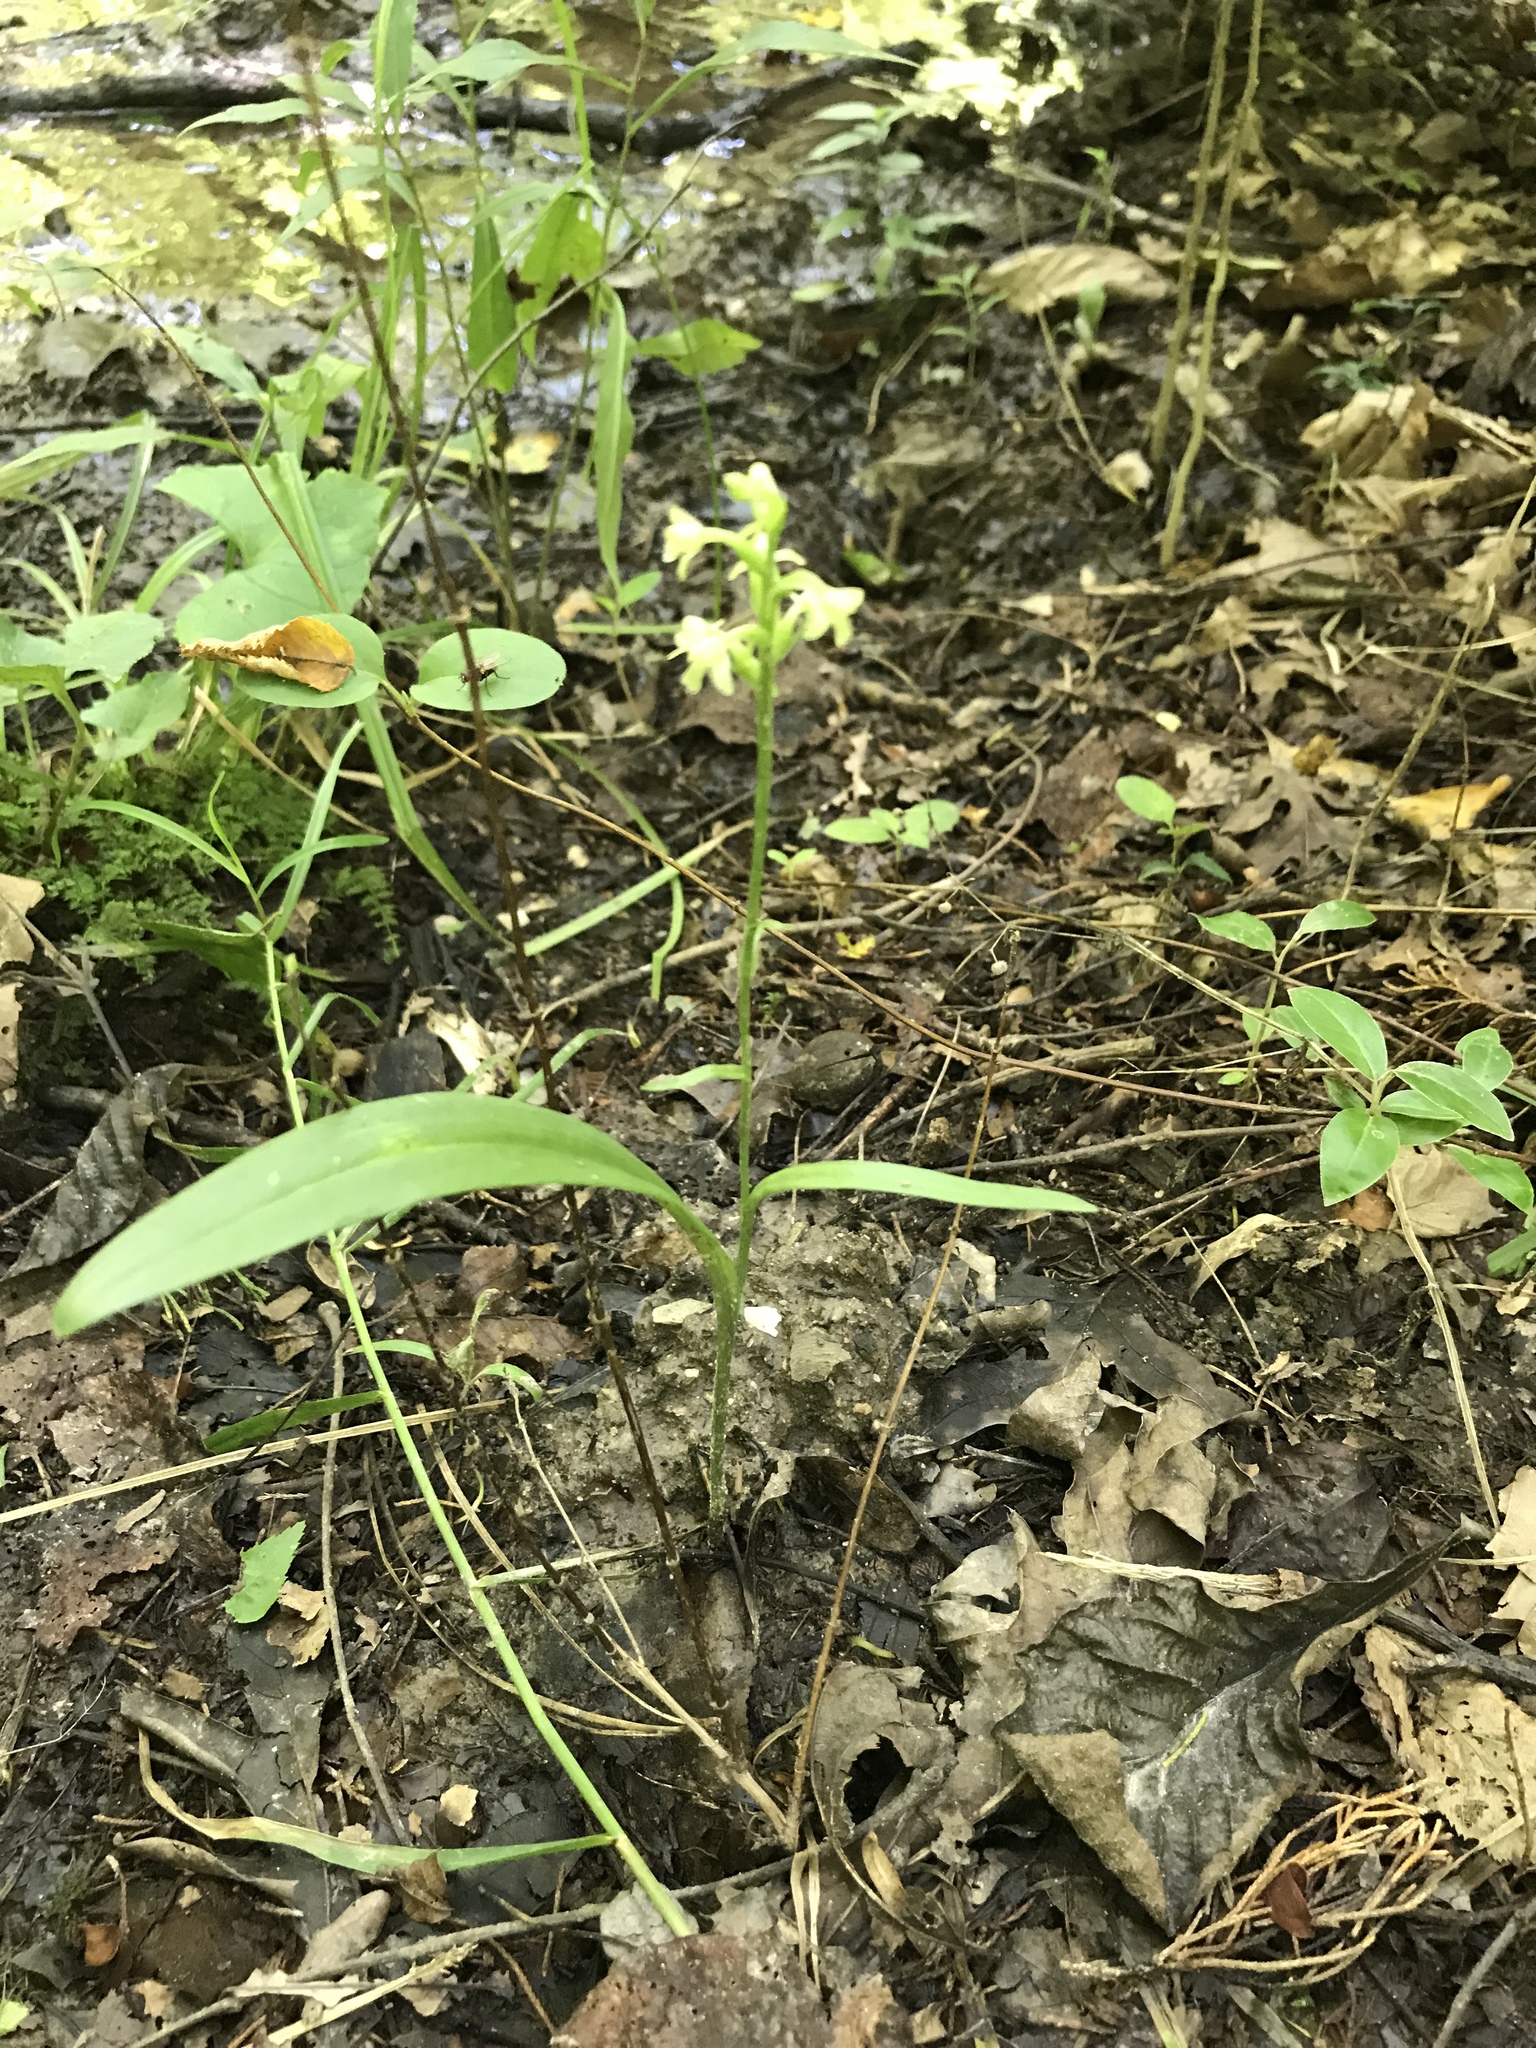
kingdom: Plantae
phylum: Tracheophyta
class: Liliopsida
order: Asparagales
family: Orchidaceae
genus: Platanthera
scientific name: Platanthera clavellata
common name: Club-spur orchid
